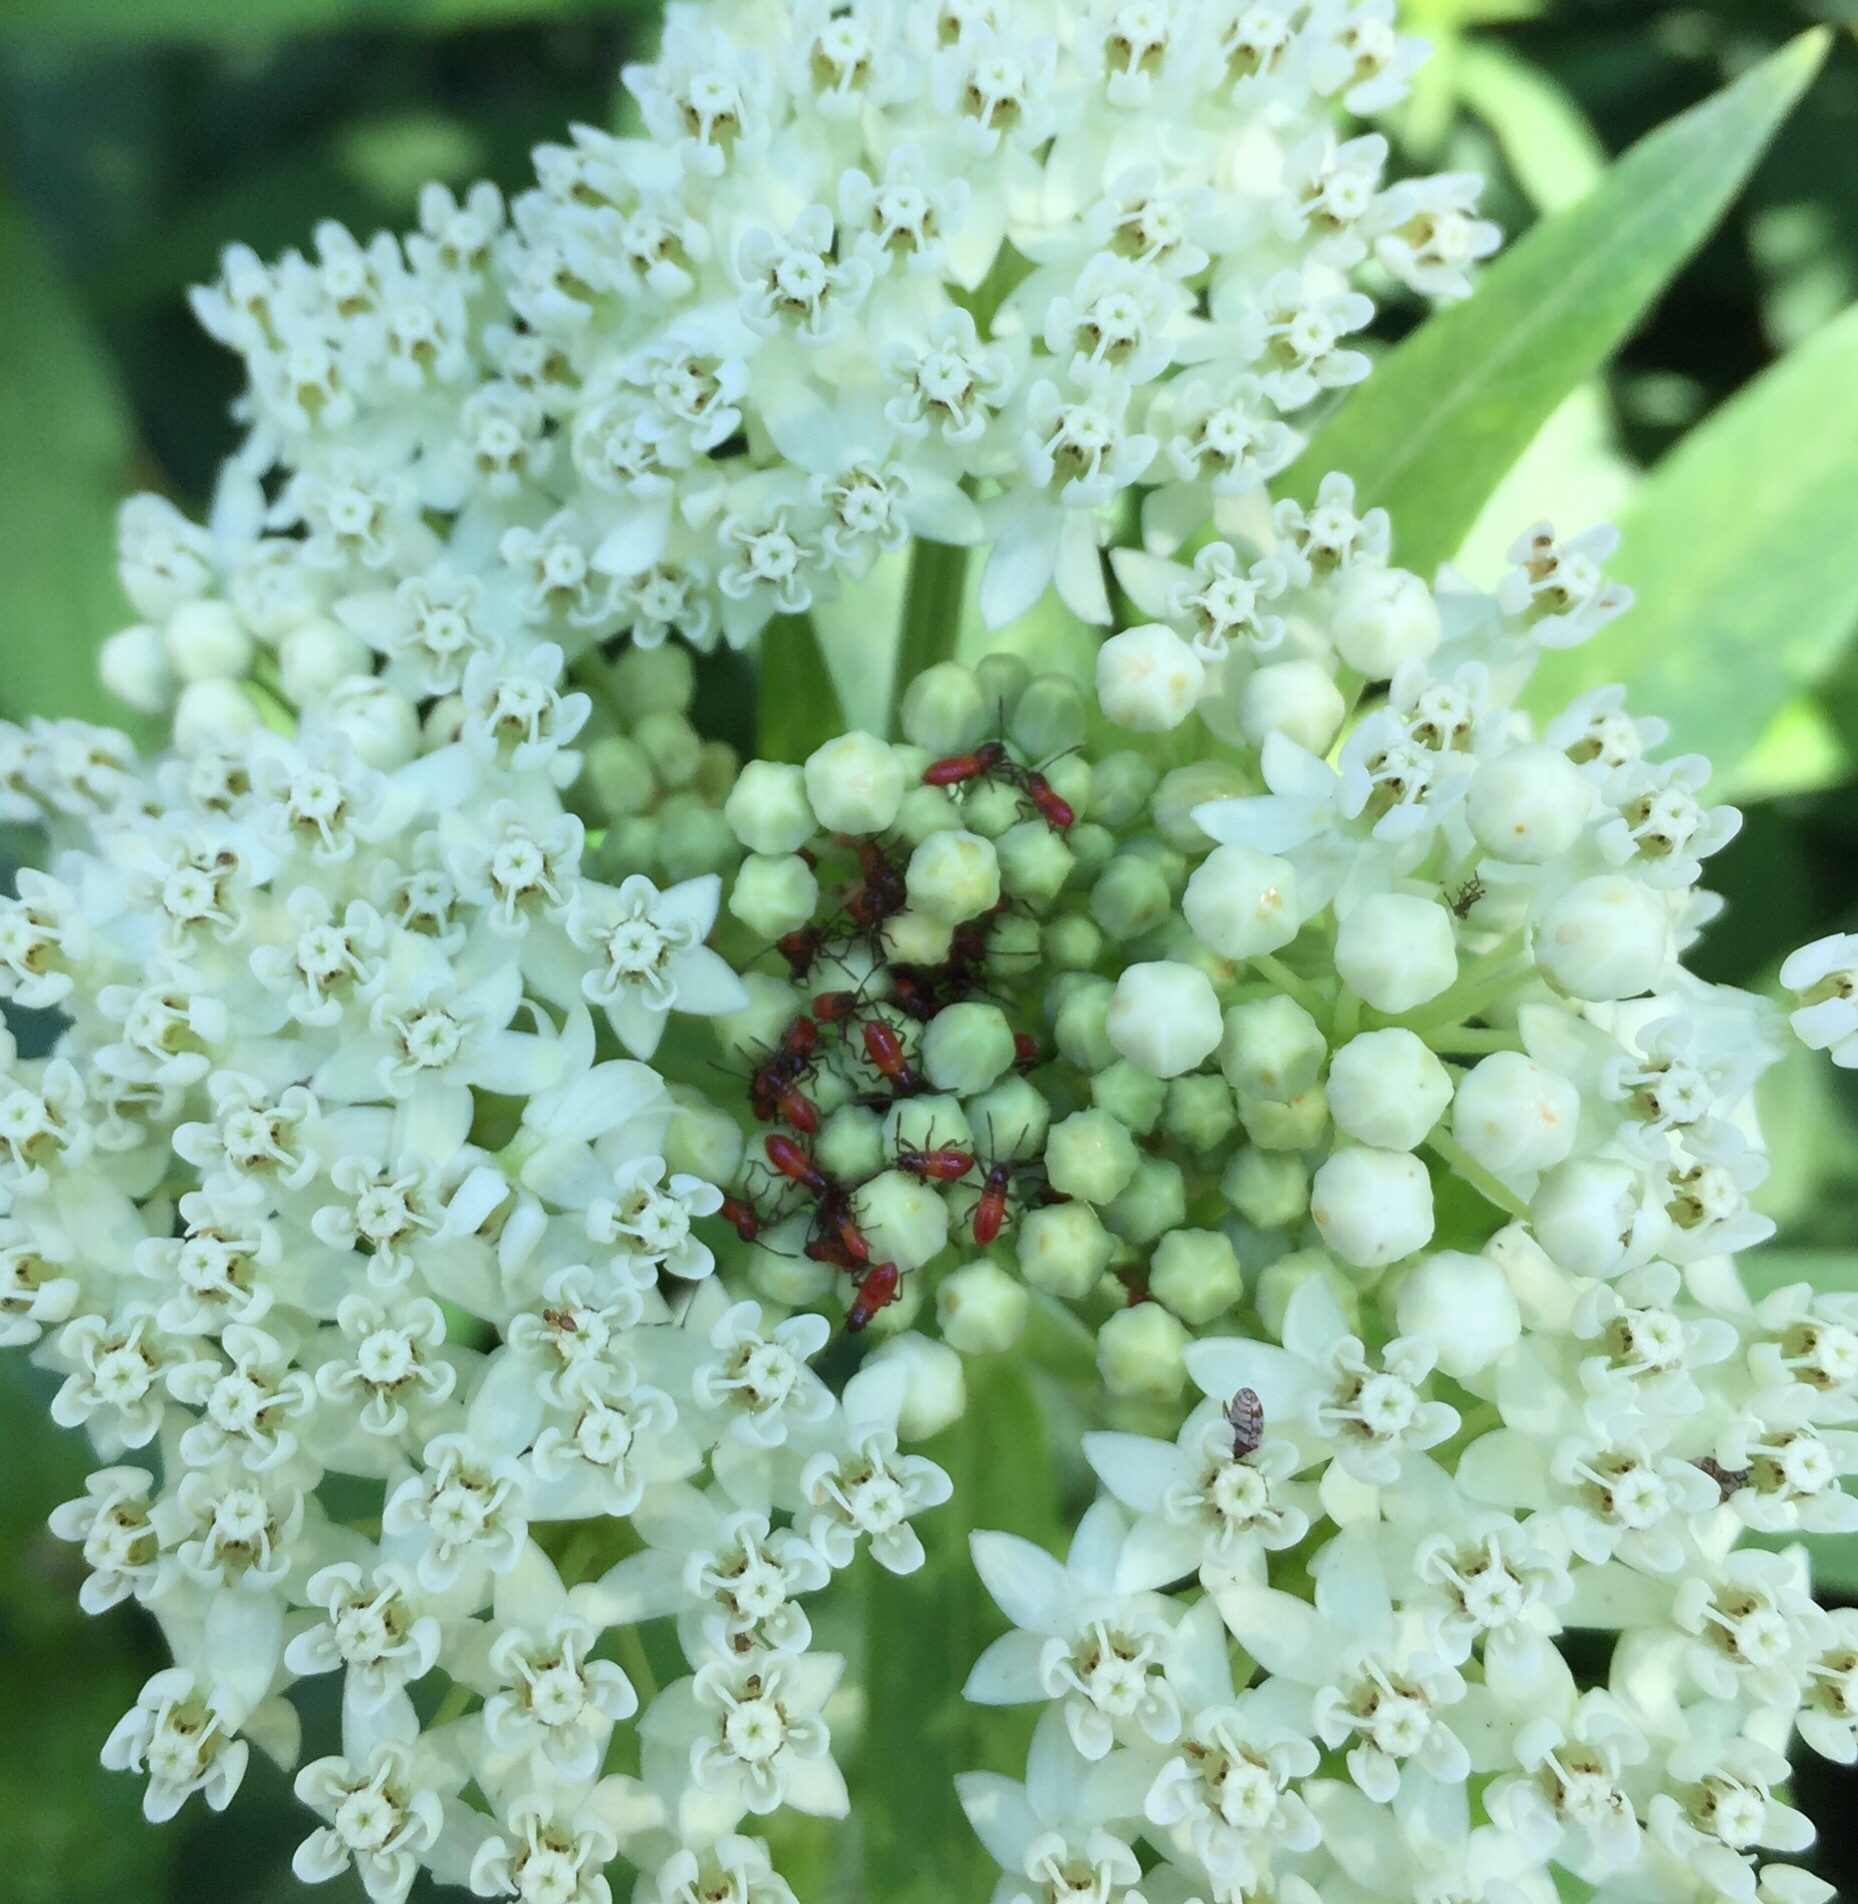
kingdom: Animalia
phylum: Arthropoda
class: Insecta
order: Hemiptera
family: Lygaeidae
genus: Oncopeltus
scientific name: Oncopeltus fasciatus
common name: Large milkweed bug
